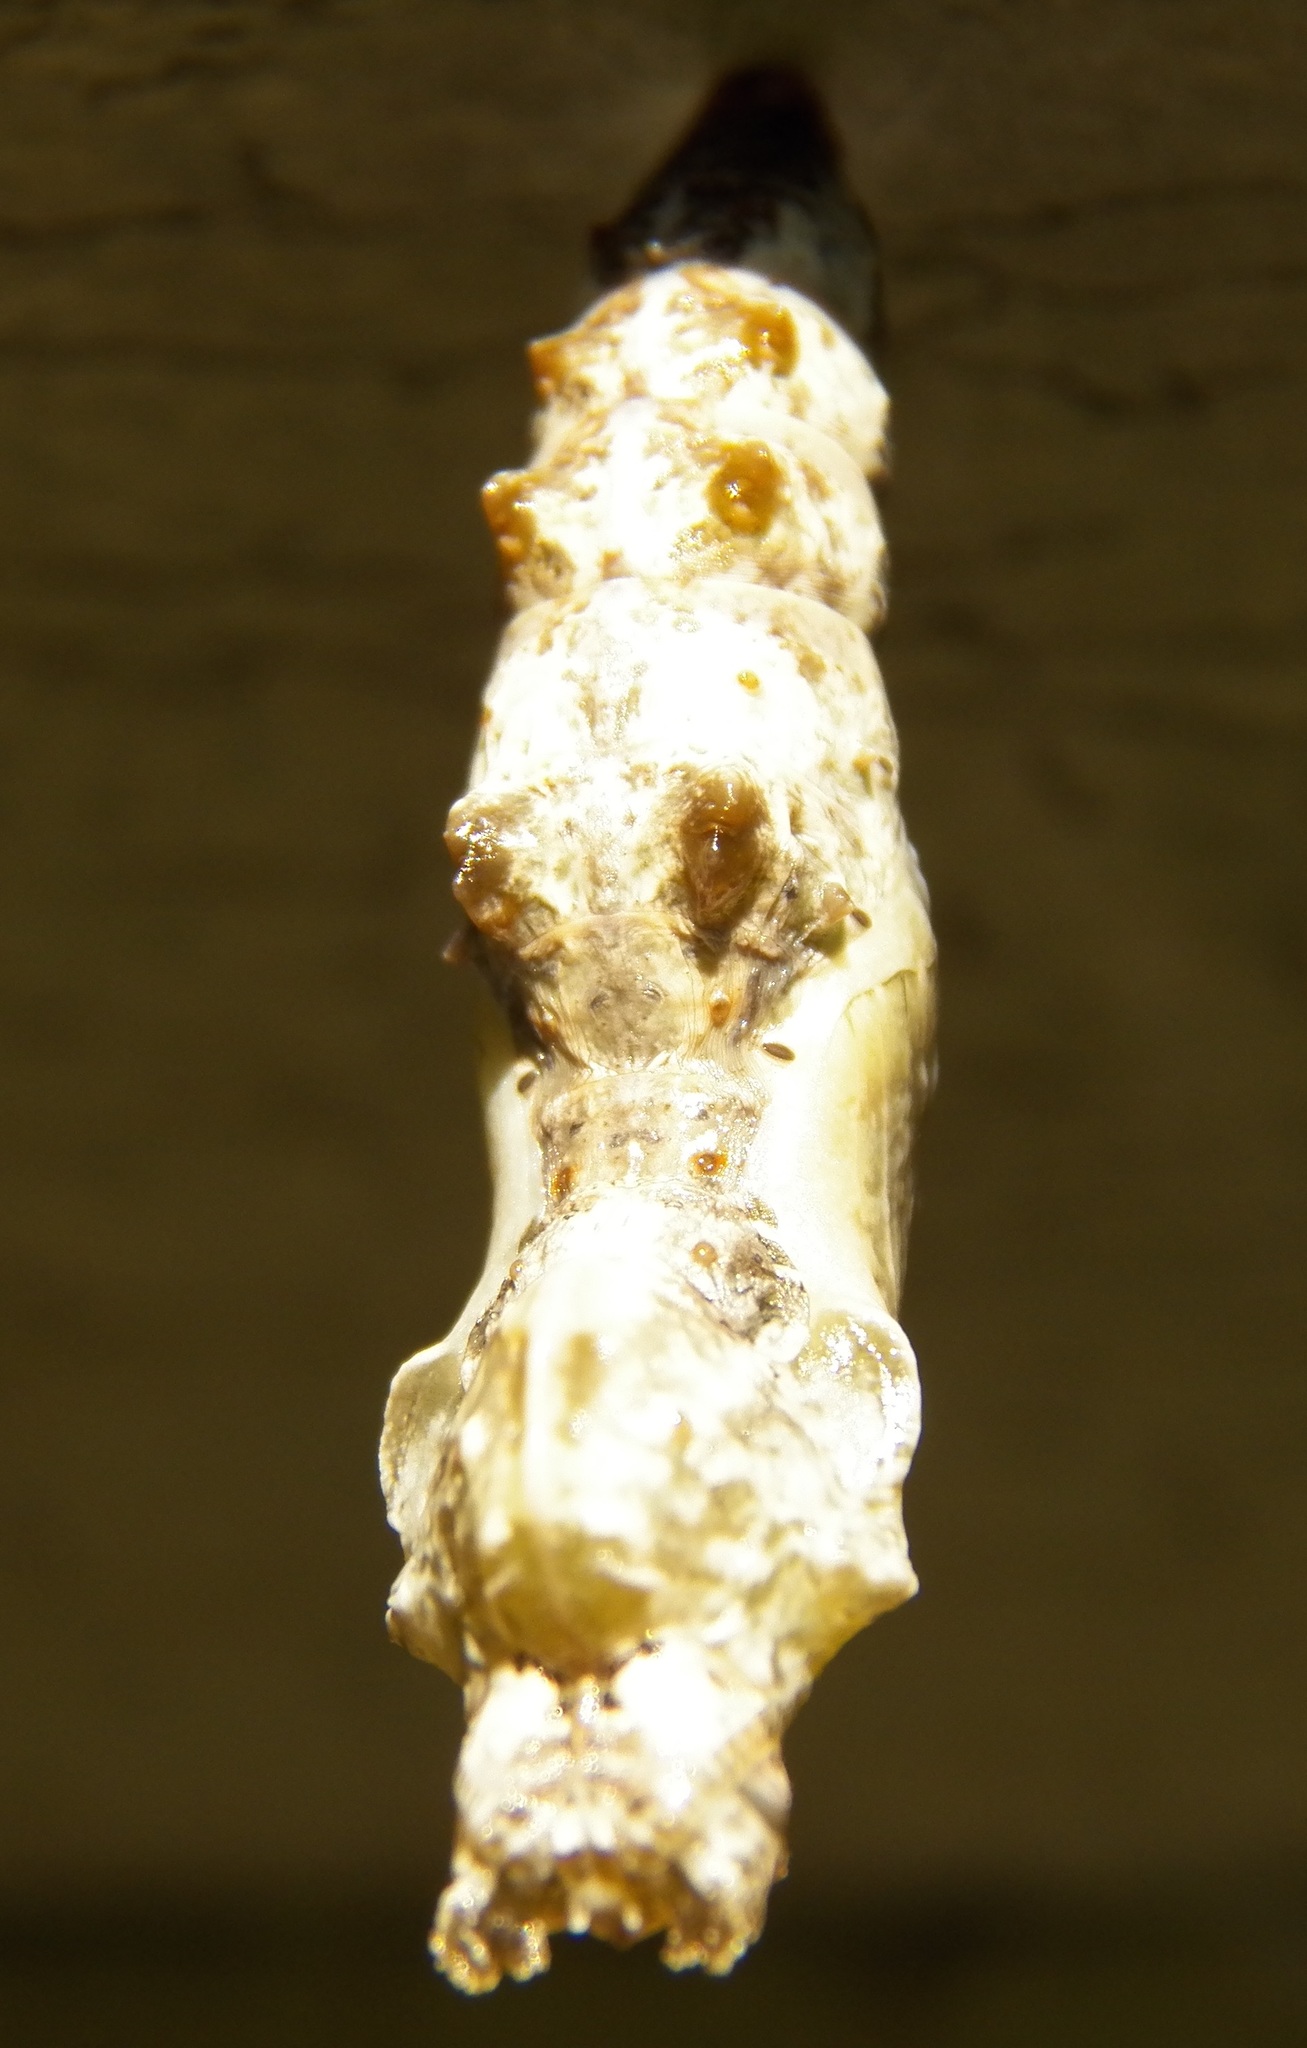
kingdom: Animalia
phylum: Arthropoda
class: Insecta
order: Lepidoptera
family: Nymphalidae
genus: Dione
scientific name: Dione vanillae
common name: Gulf fritillary
